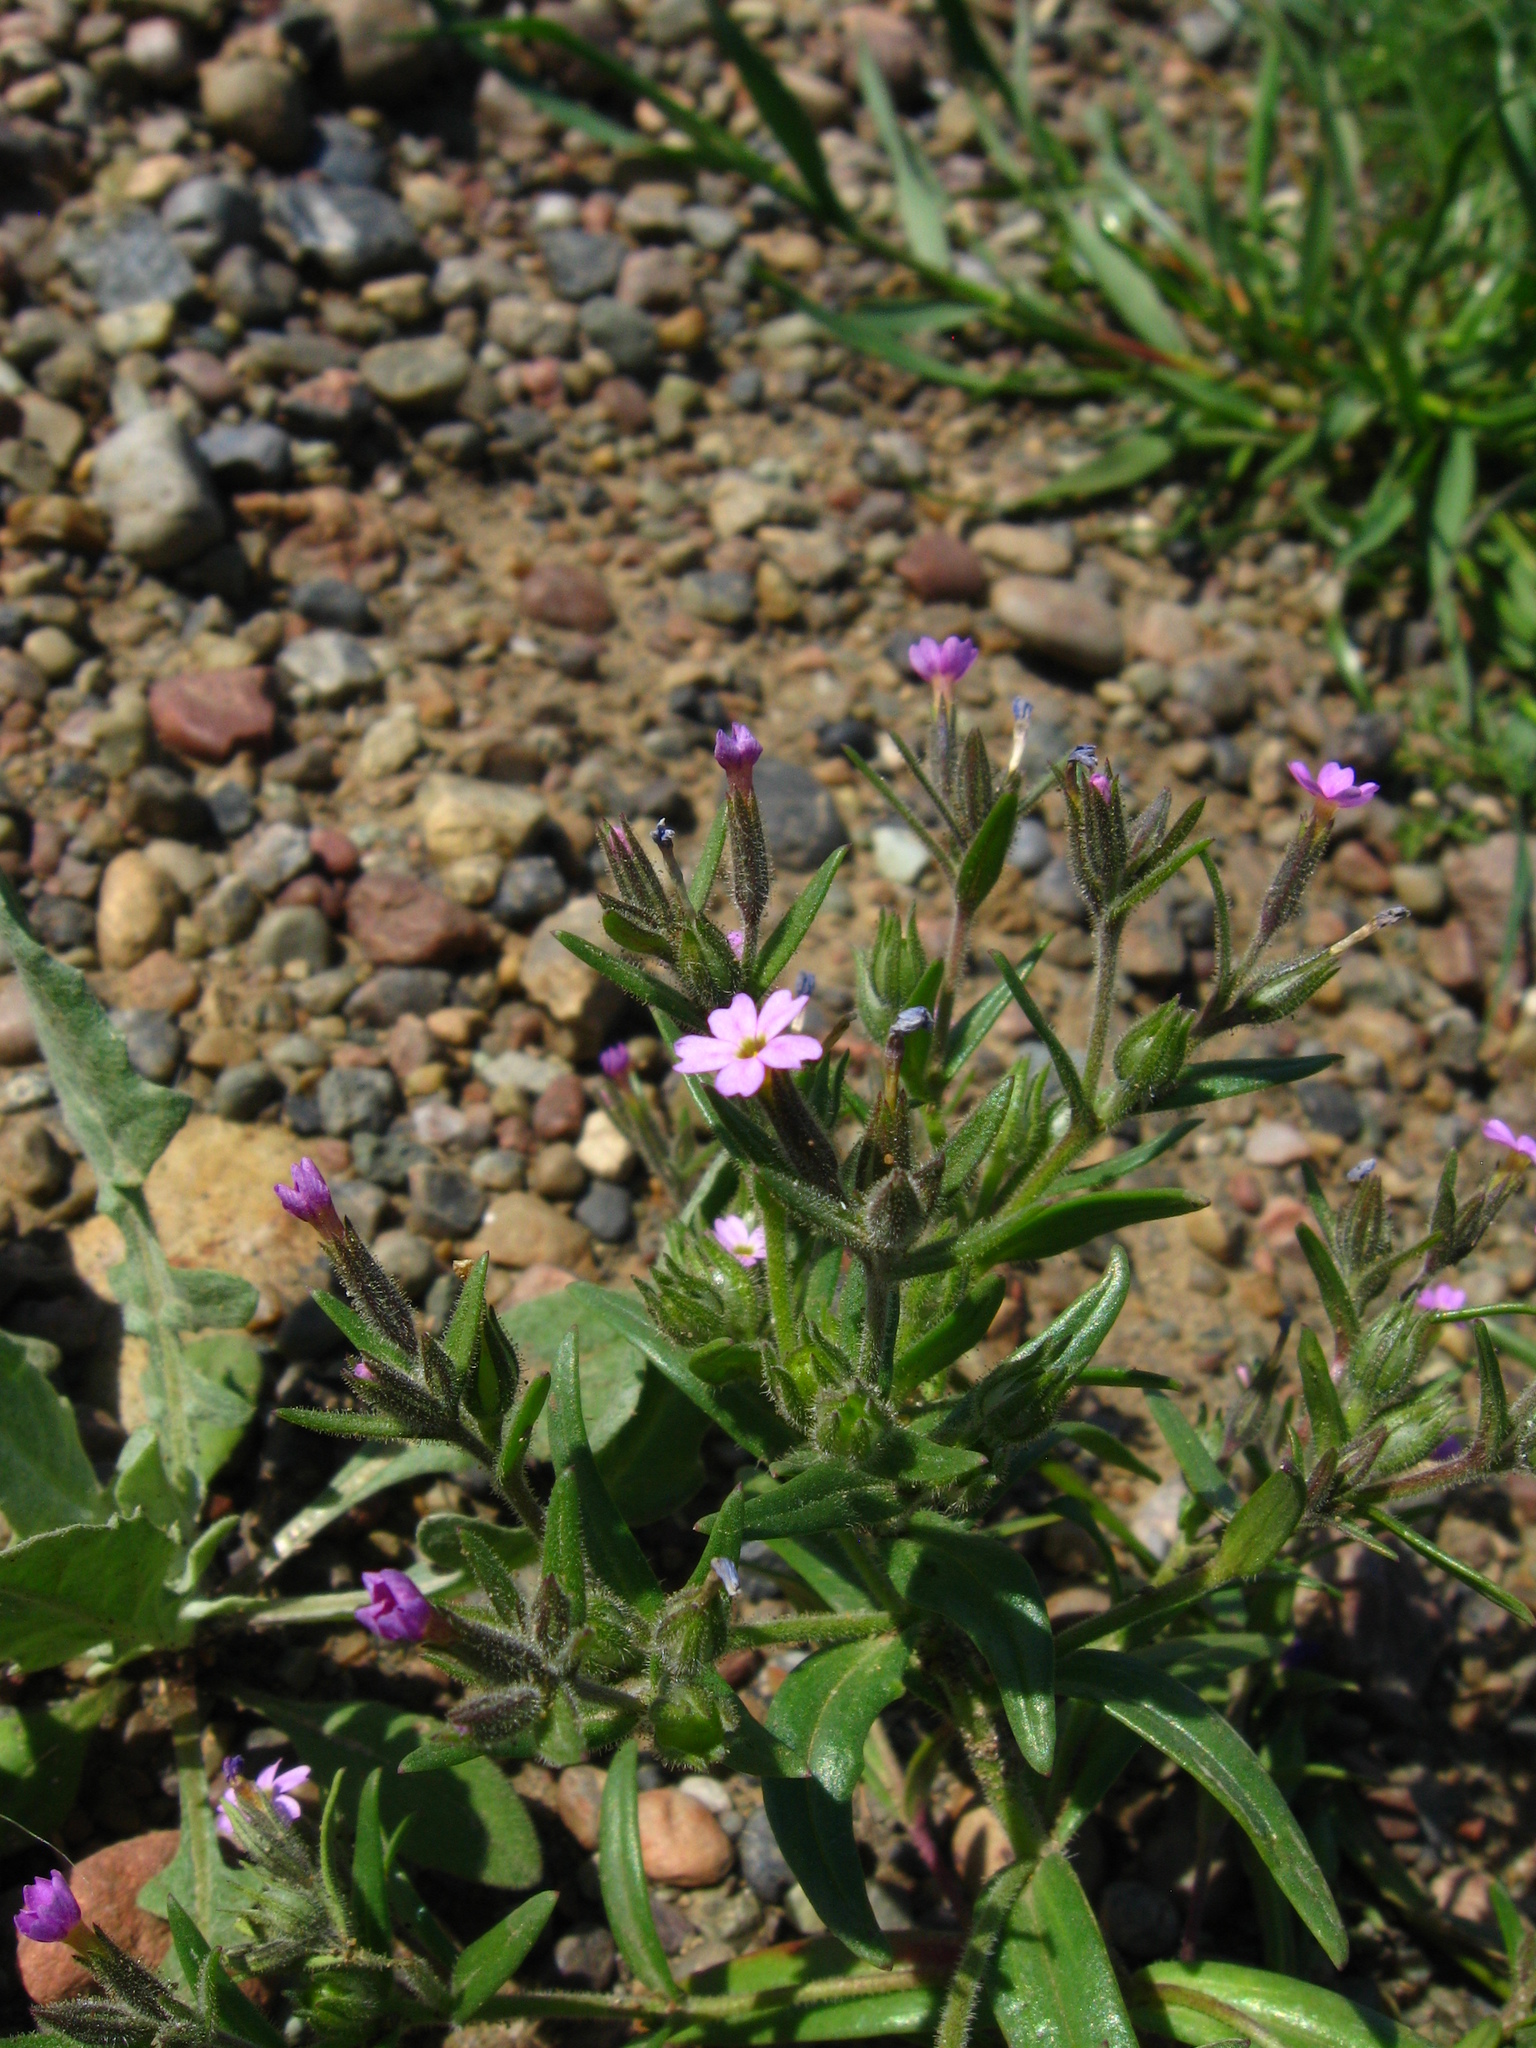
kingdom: Plantae
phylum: Tracheophyta
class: Magnoliopsida
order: Ericales
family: Polemoniaceae
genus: Phlox
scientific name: Phlox gracilis
